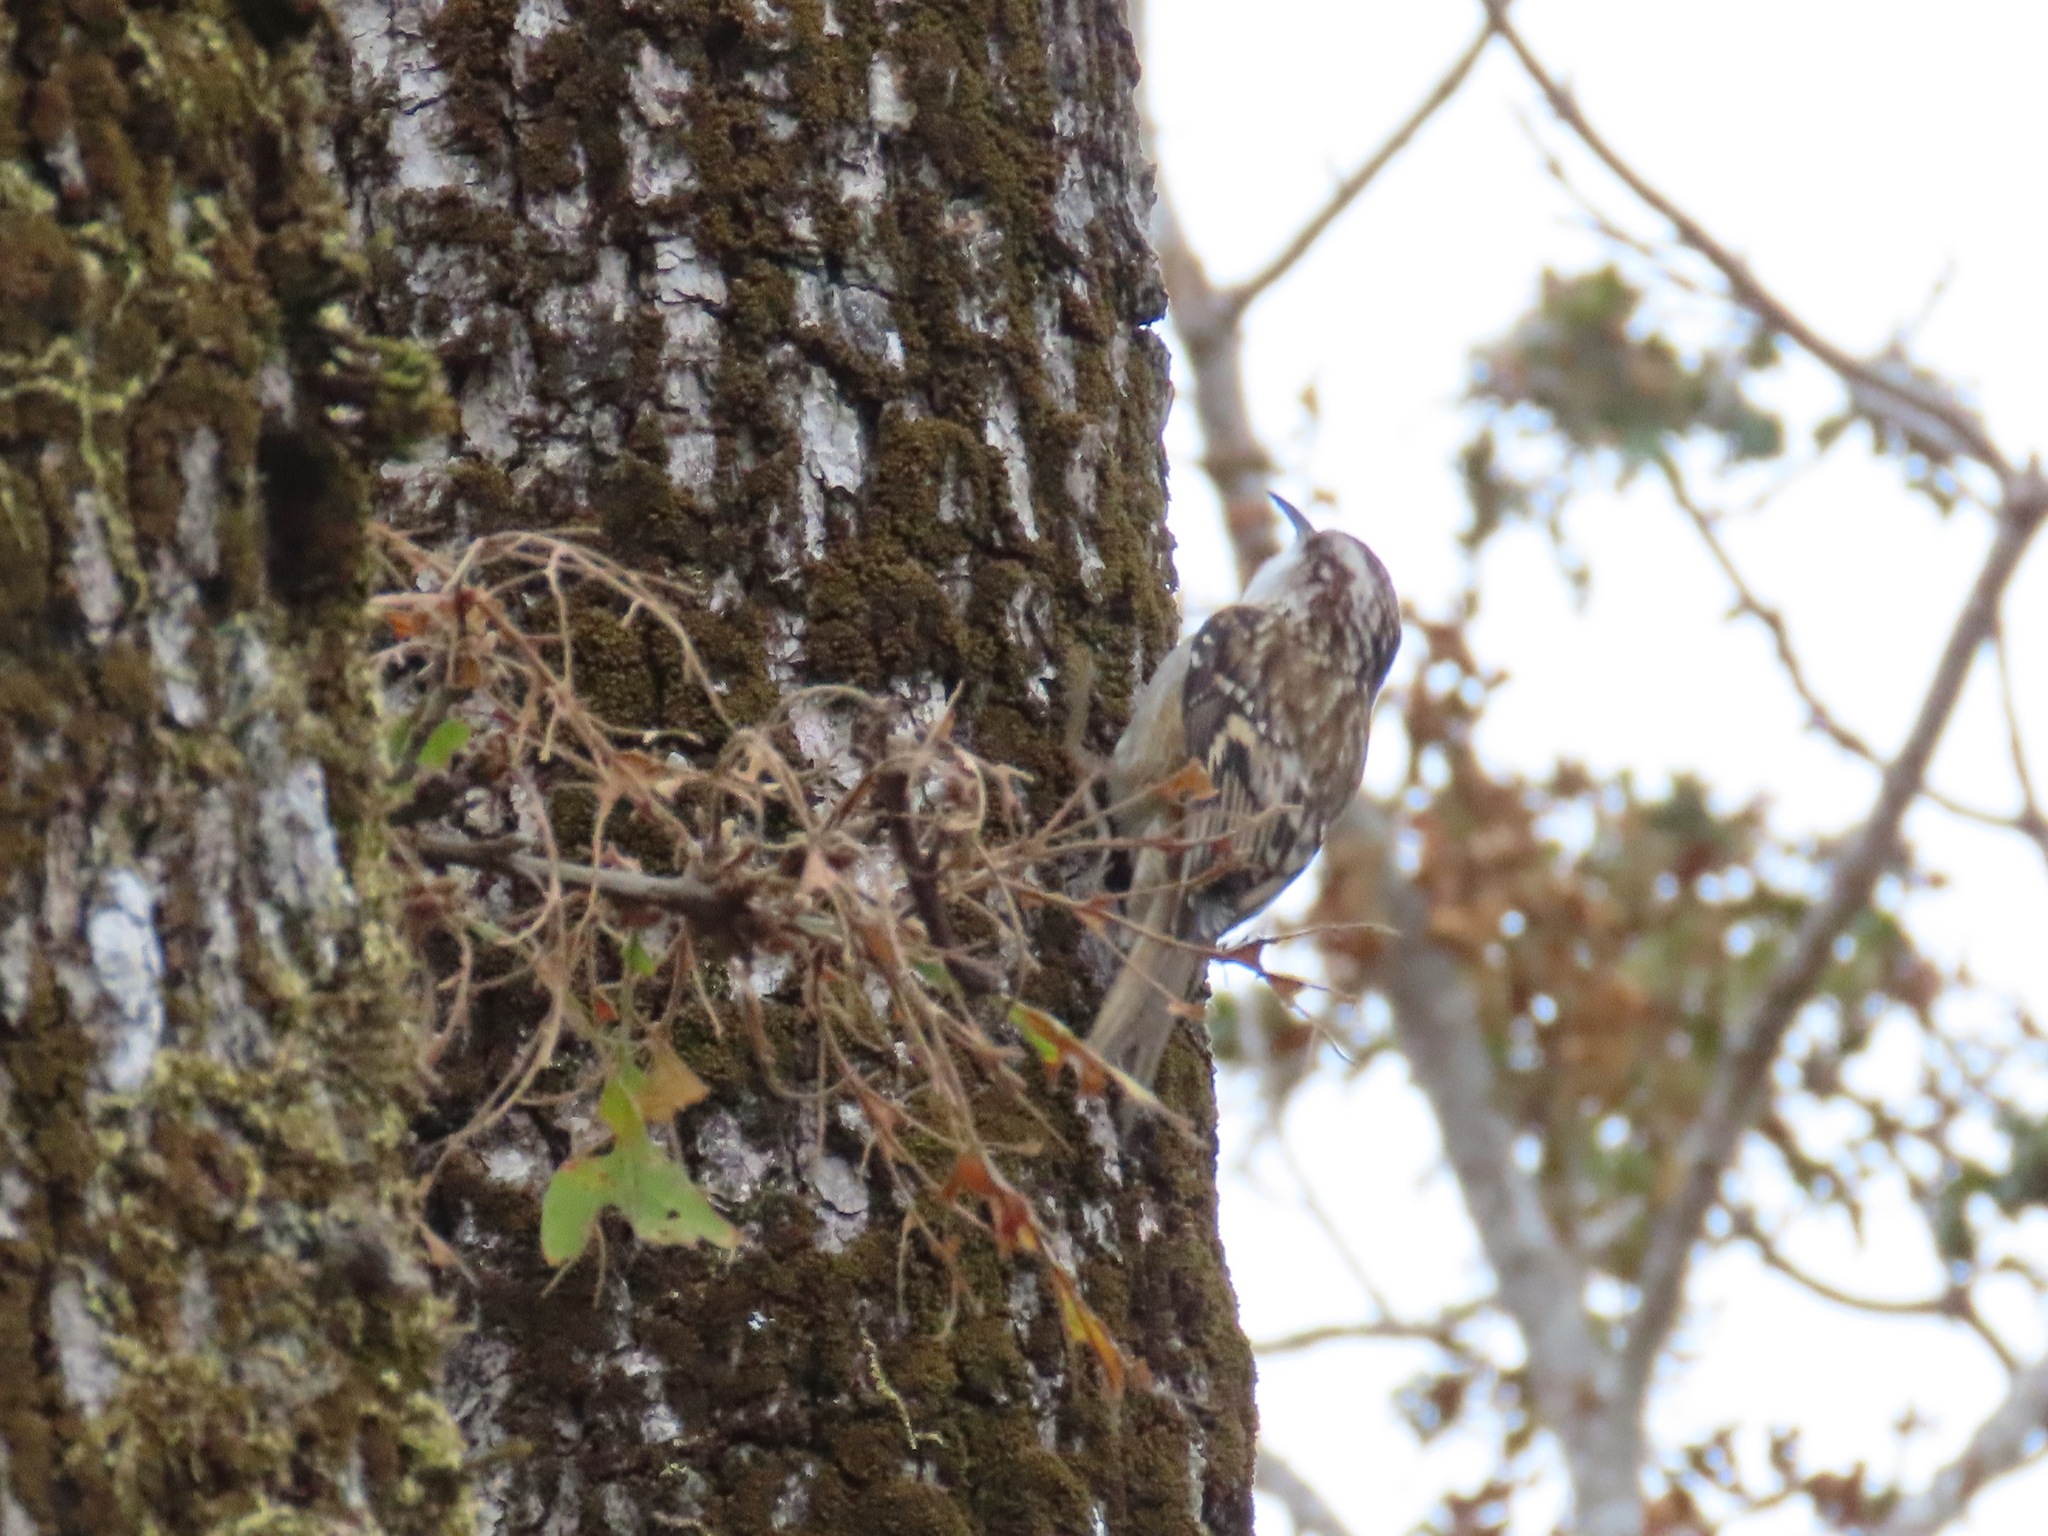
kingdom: Animalia
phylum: Chordata
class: Aves
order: Passeriformes
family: Certhiidae
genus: Certhia
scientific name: Certhia americana
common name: Brown creeper
